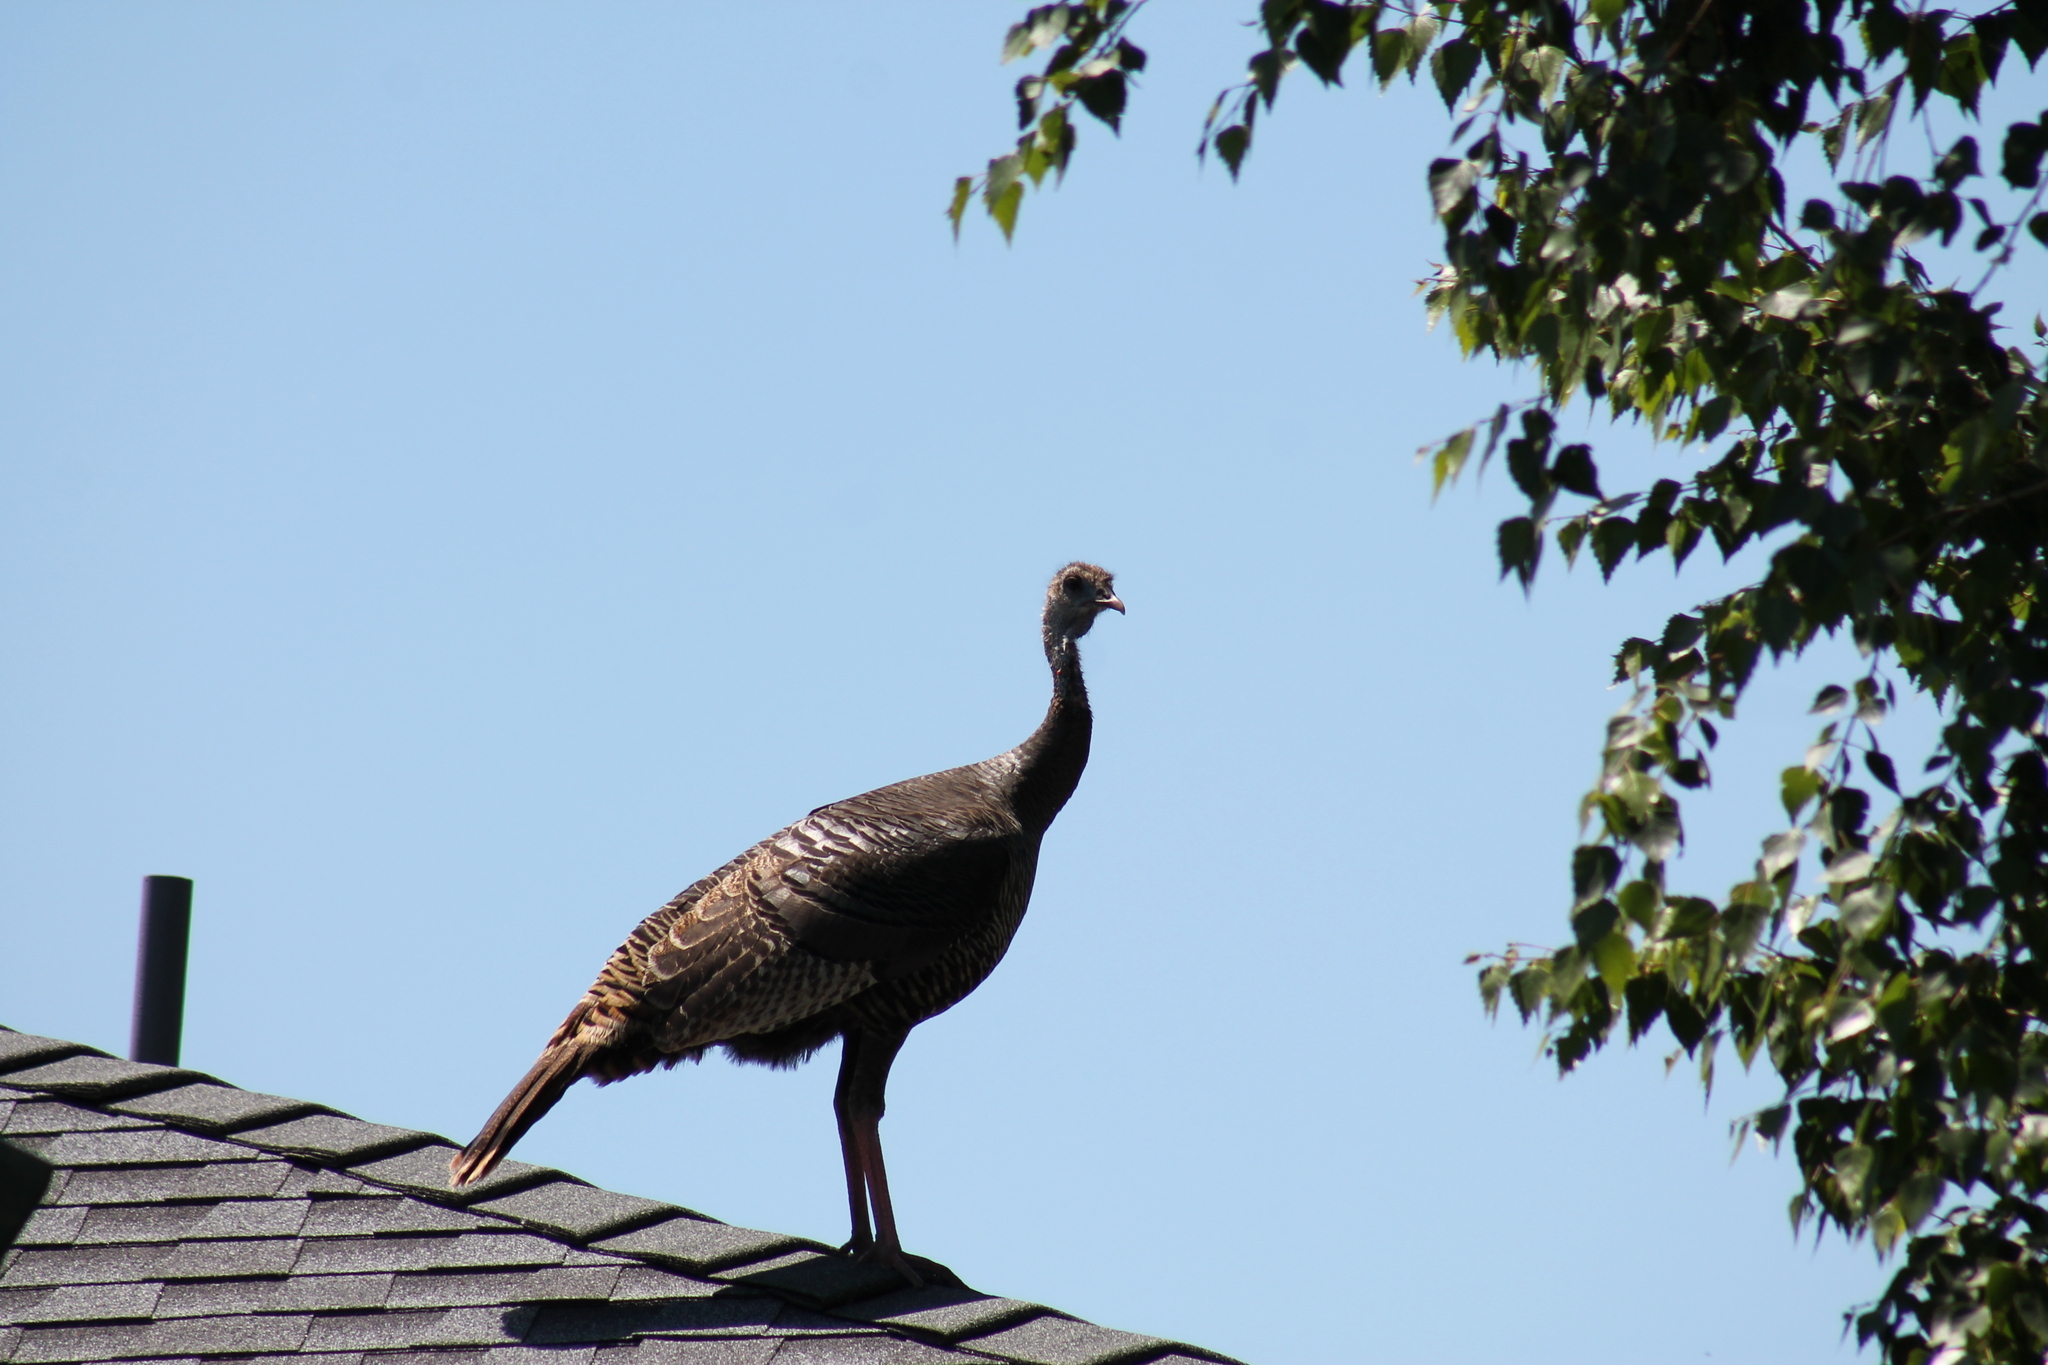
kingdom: Animalia
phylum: Chordata
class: Aves
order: Galliformes
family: Phasianidae
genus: Meleagris
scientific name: Meleagris gallopavo
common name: Wild turkey
